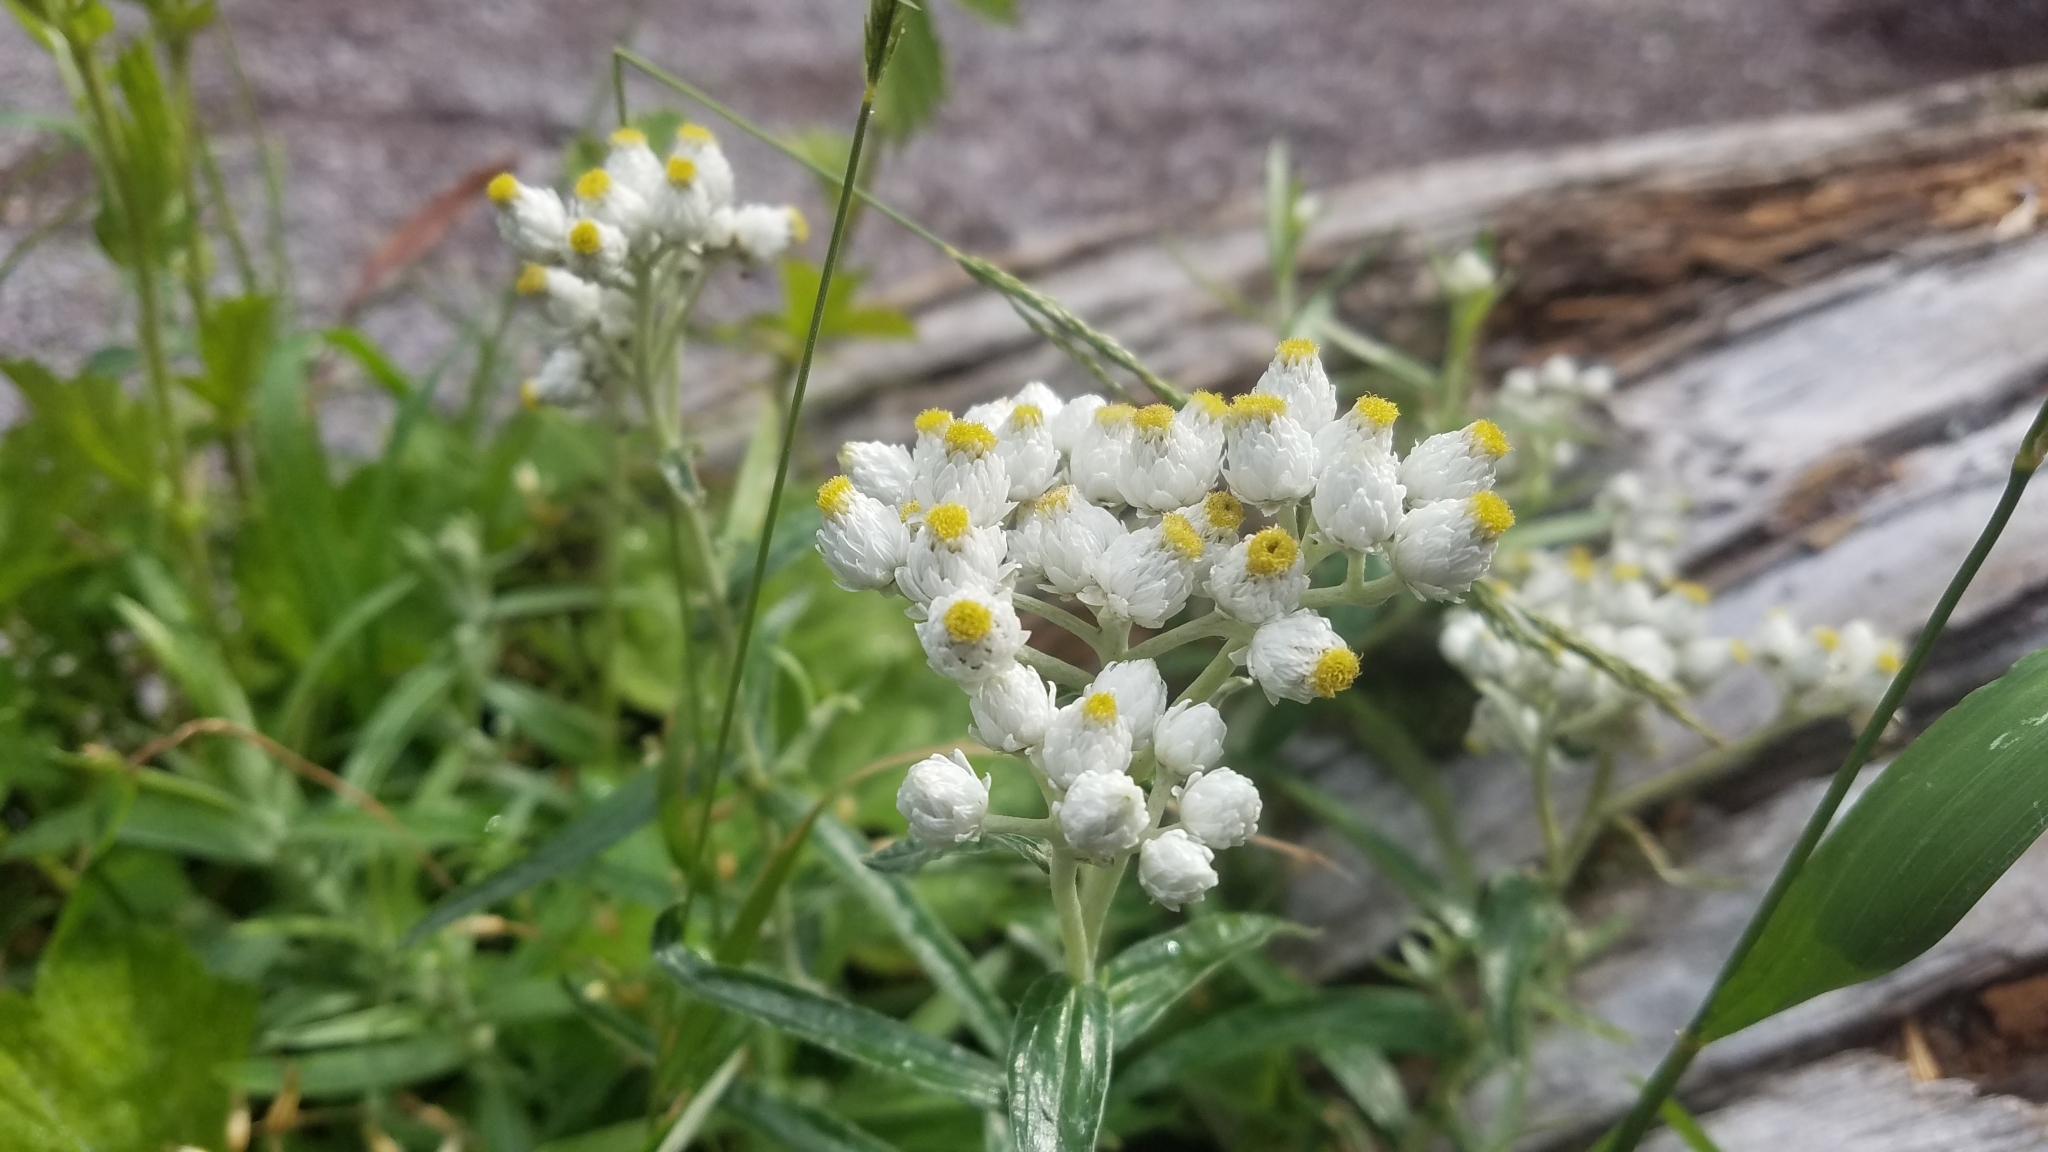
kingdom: Plantae
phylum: Tracheophyta
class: Magnoliopsida
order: Asterales
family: Asteraceae
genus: Anaphalis
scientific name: Anaphalis margaritacea
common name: Pearly everlasting
